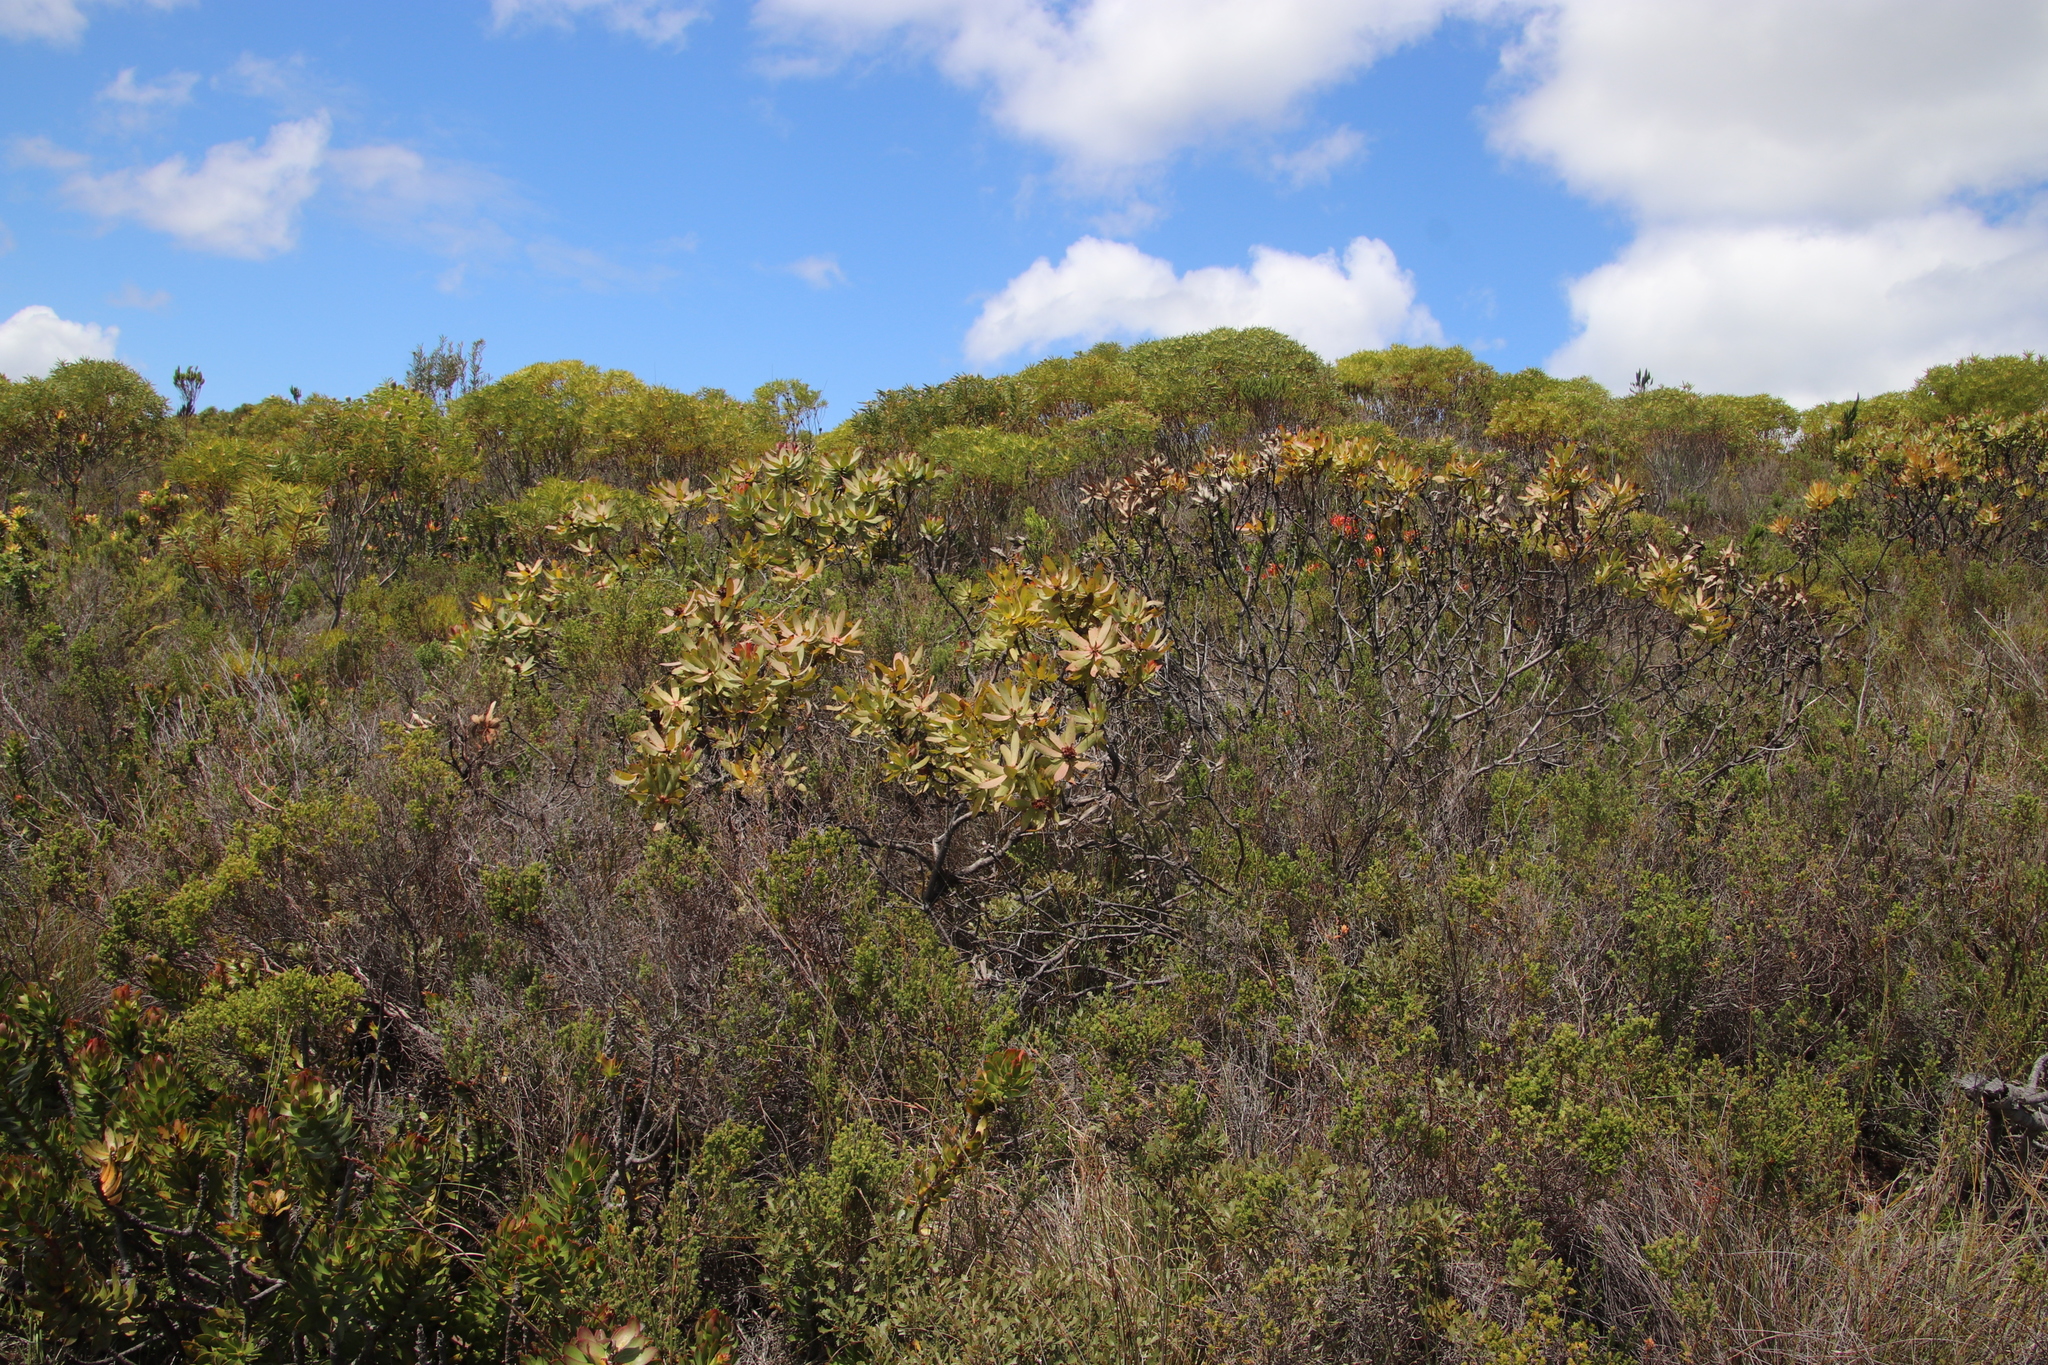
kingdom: Plantae
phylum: Tracheophyta
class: Magnoliopsida
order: Proteales
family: Proteaceae
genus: Leucadendron
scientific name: Leucadendron tinctum
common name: Spicy conebush
